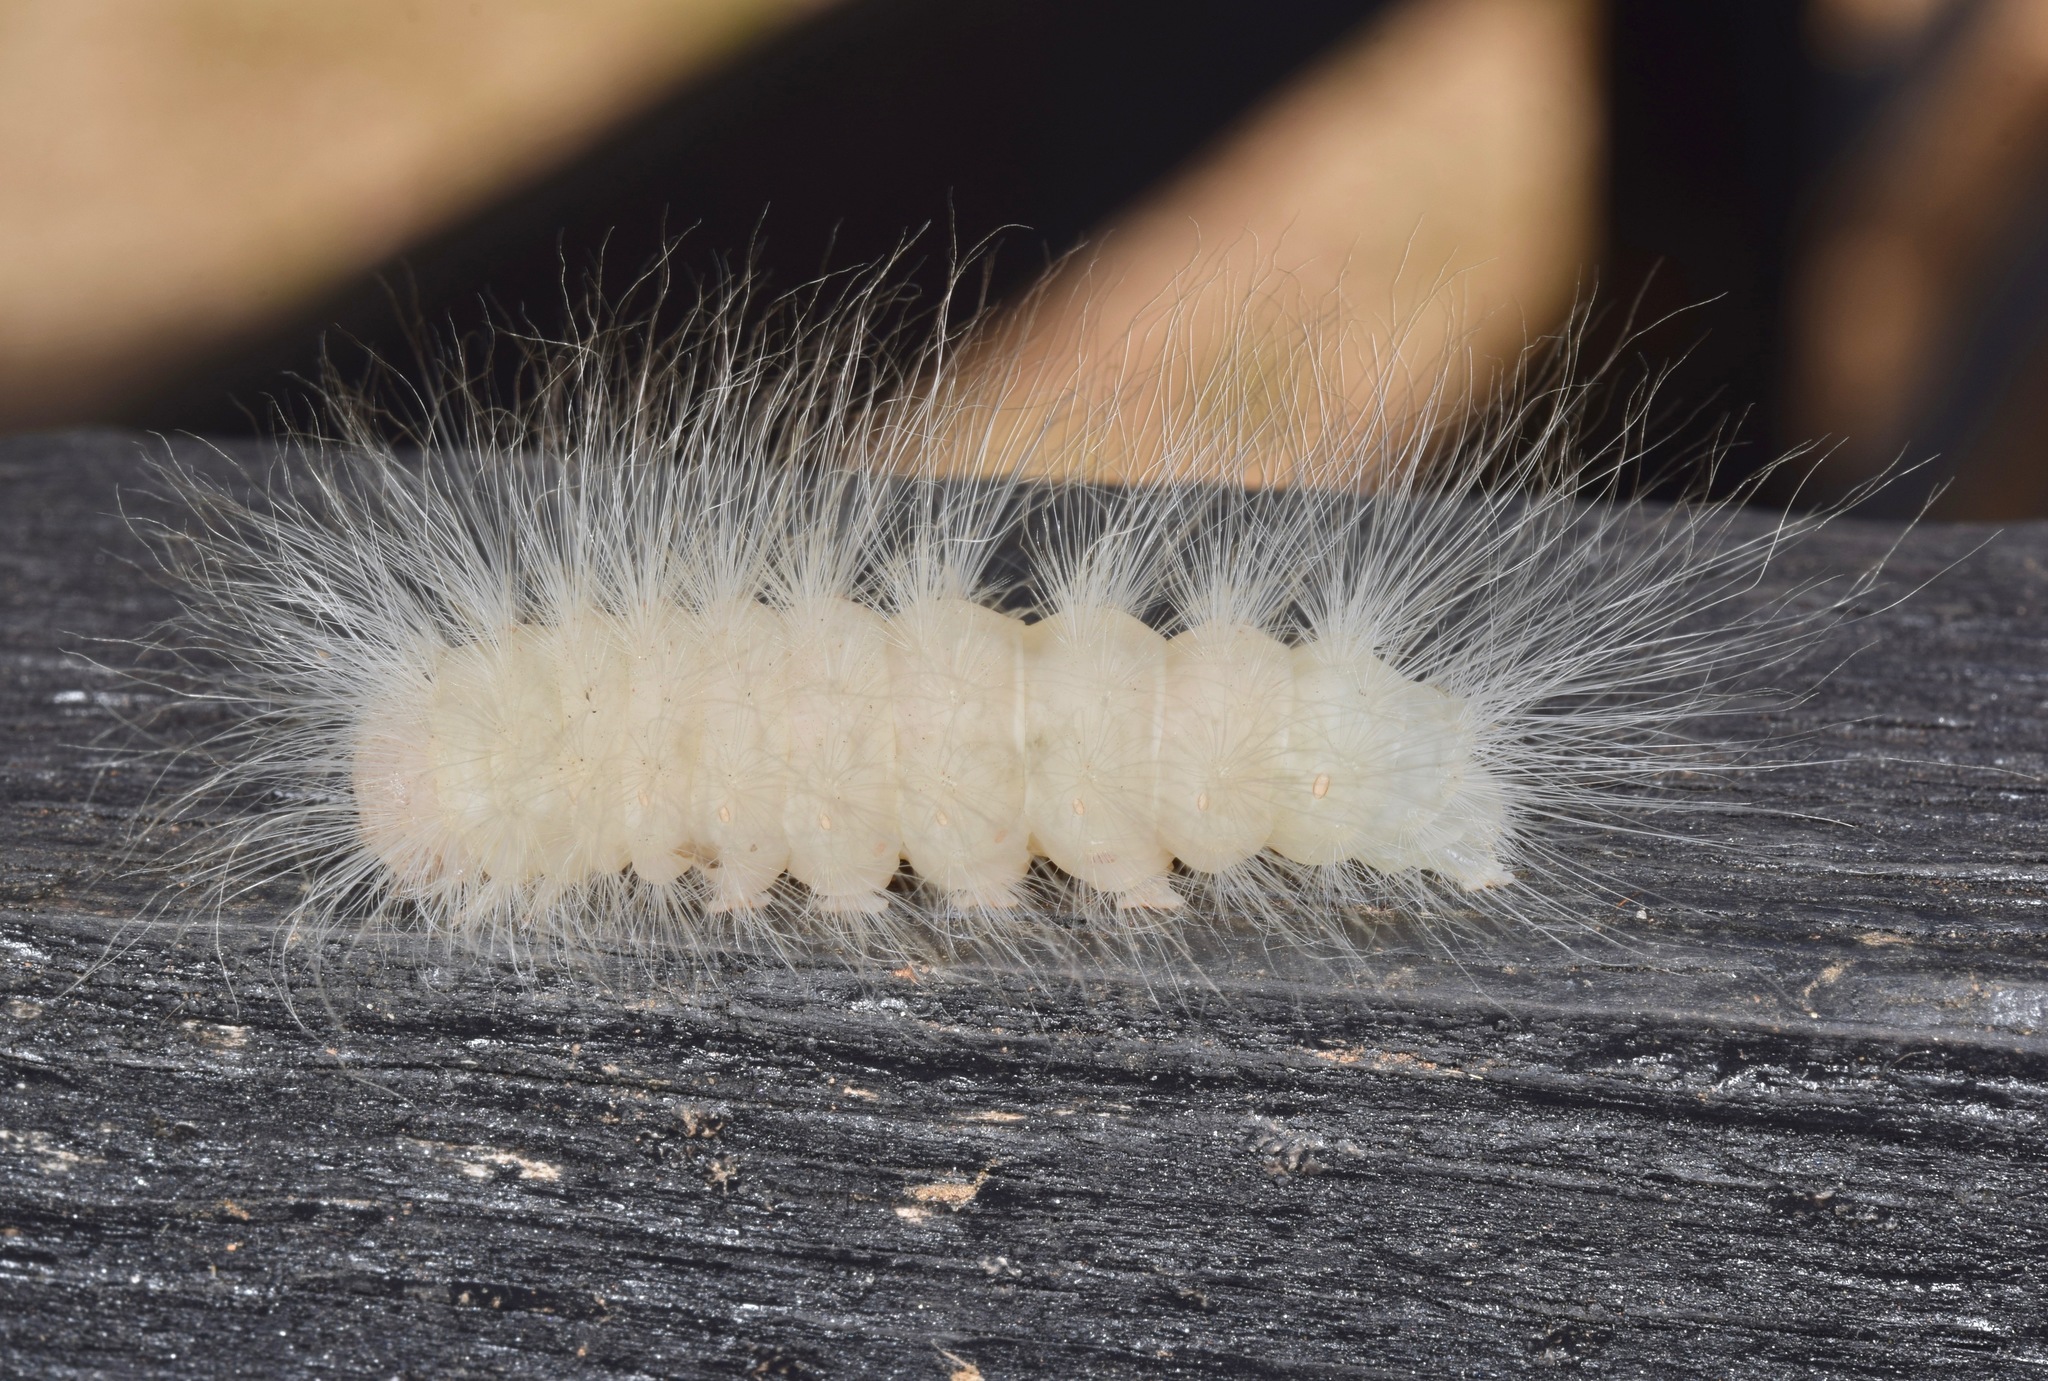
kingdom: Animalia
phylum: Arthropoda
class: Insecta
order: Lepidoptera
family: Noctuidae
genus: Charadra
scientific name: Charadra deridens
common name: Marbled tuffet
